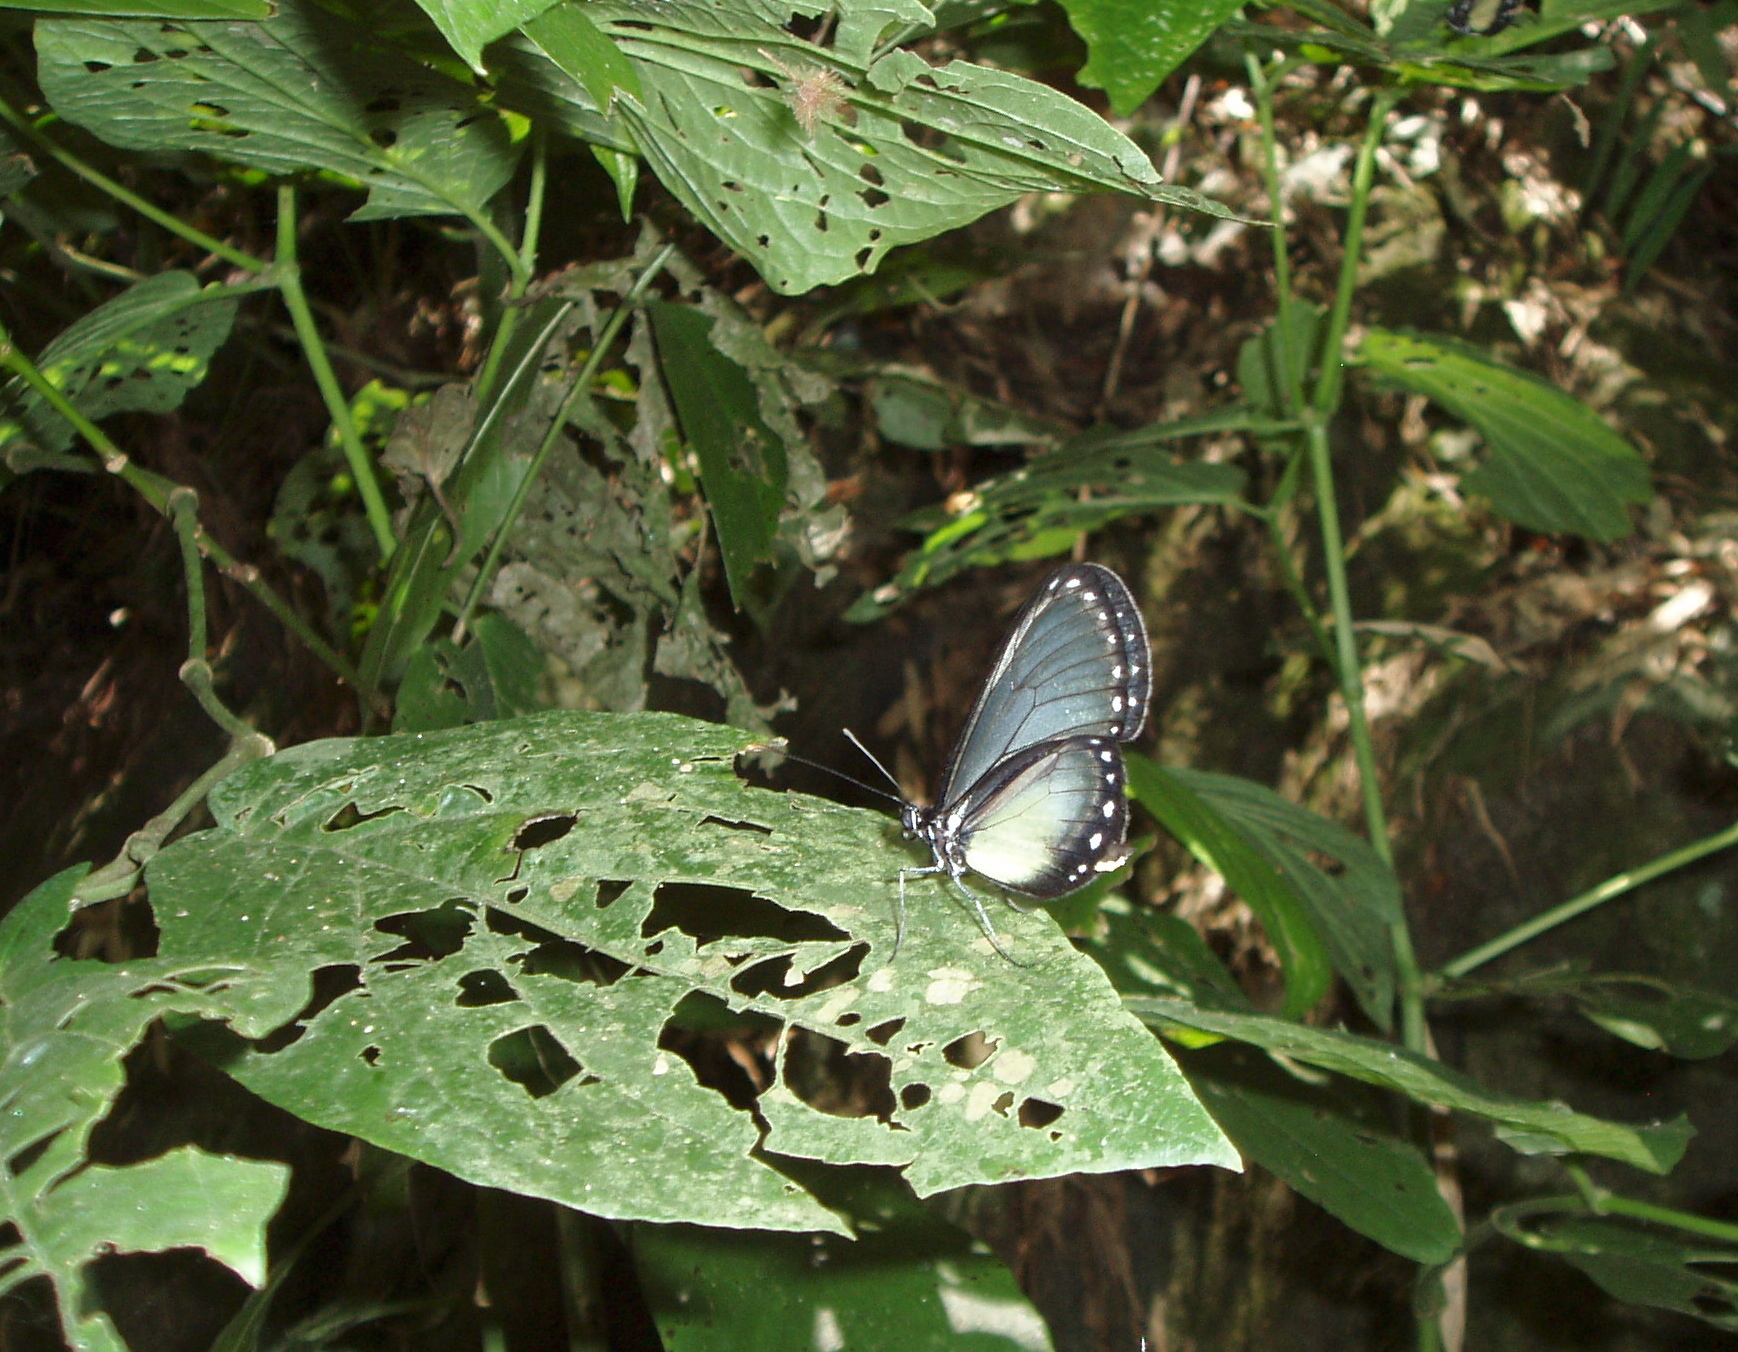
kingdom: Animalia
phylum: Arthropoda
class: Insecta
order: Lepidoptera
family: Nymphalidae
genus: Hyalyris
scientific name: Hyalyris coeno
